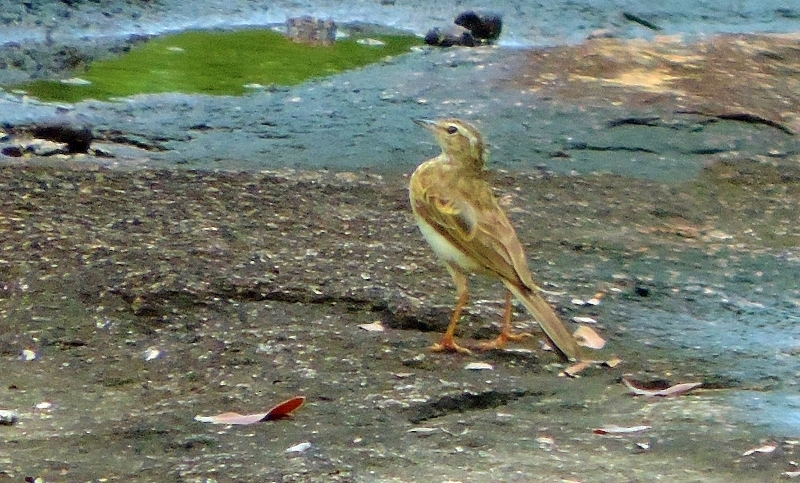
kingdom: Animalia
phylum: Chordata
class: Aves
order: Passeriformes
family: Motacillidae
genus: Anthus
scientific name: Anthus nyassae
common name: Wood pipit
